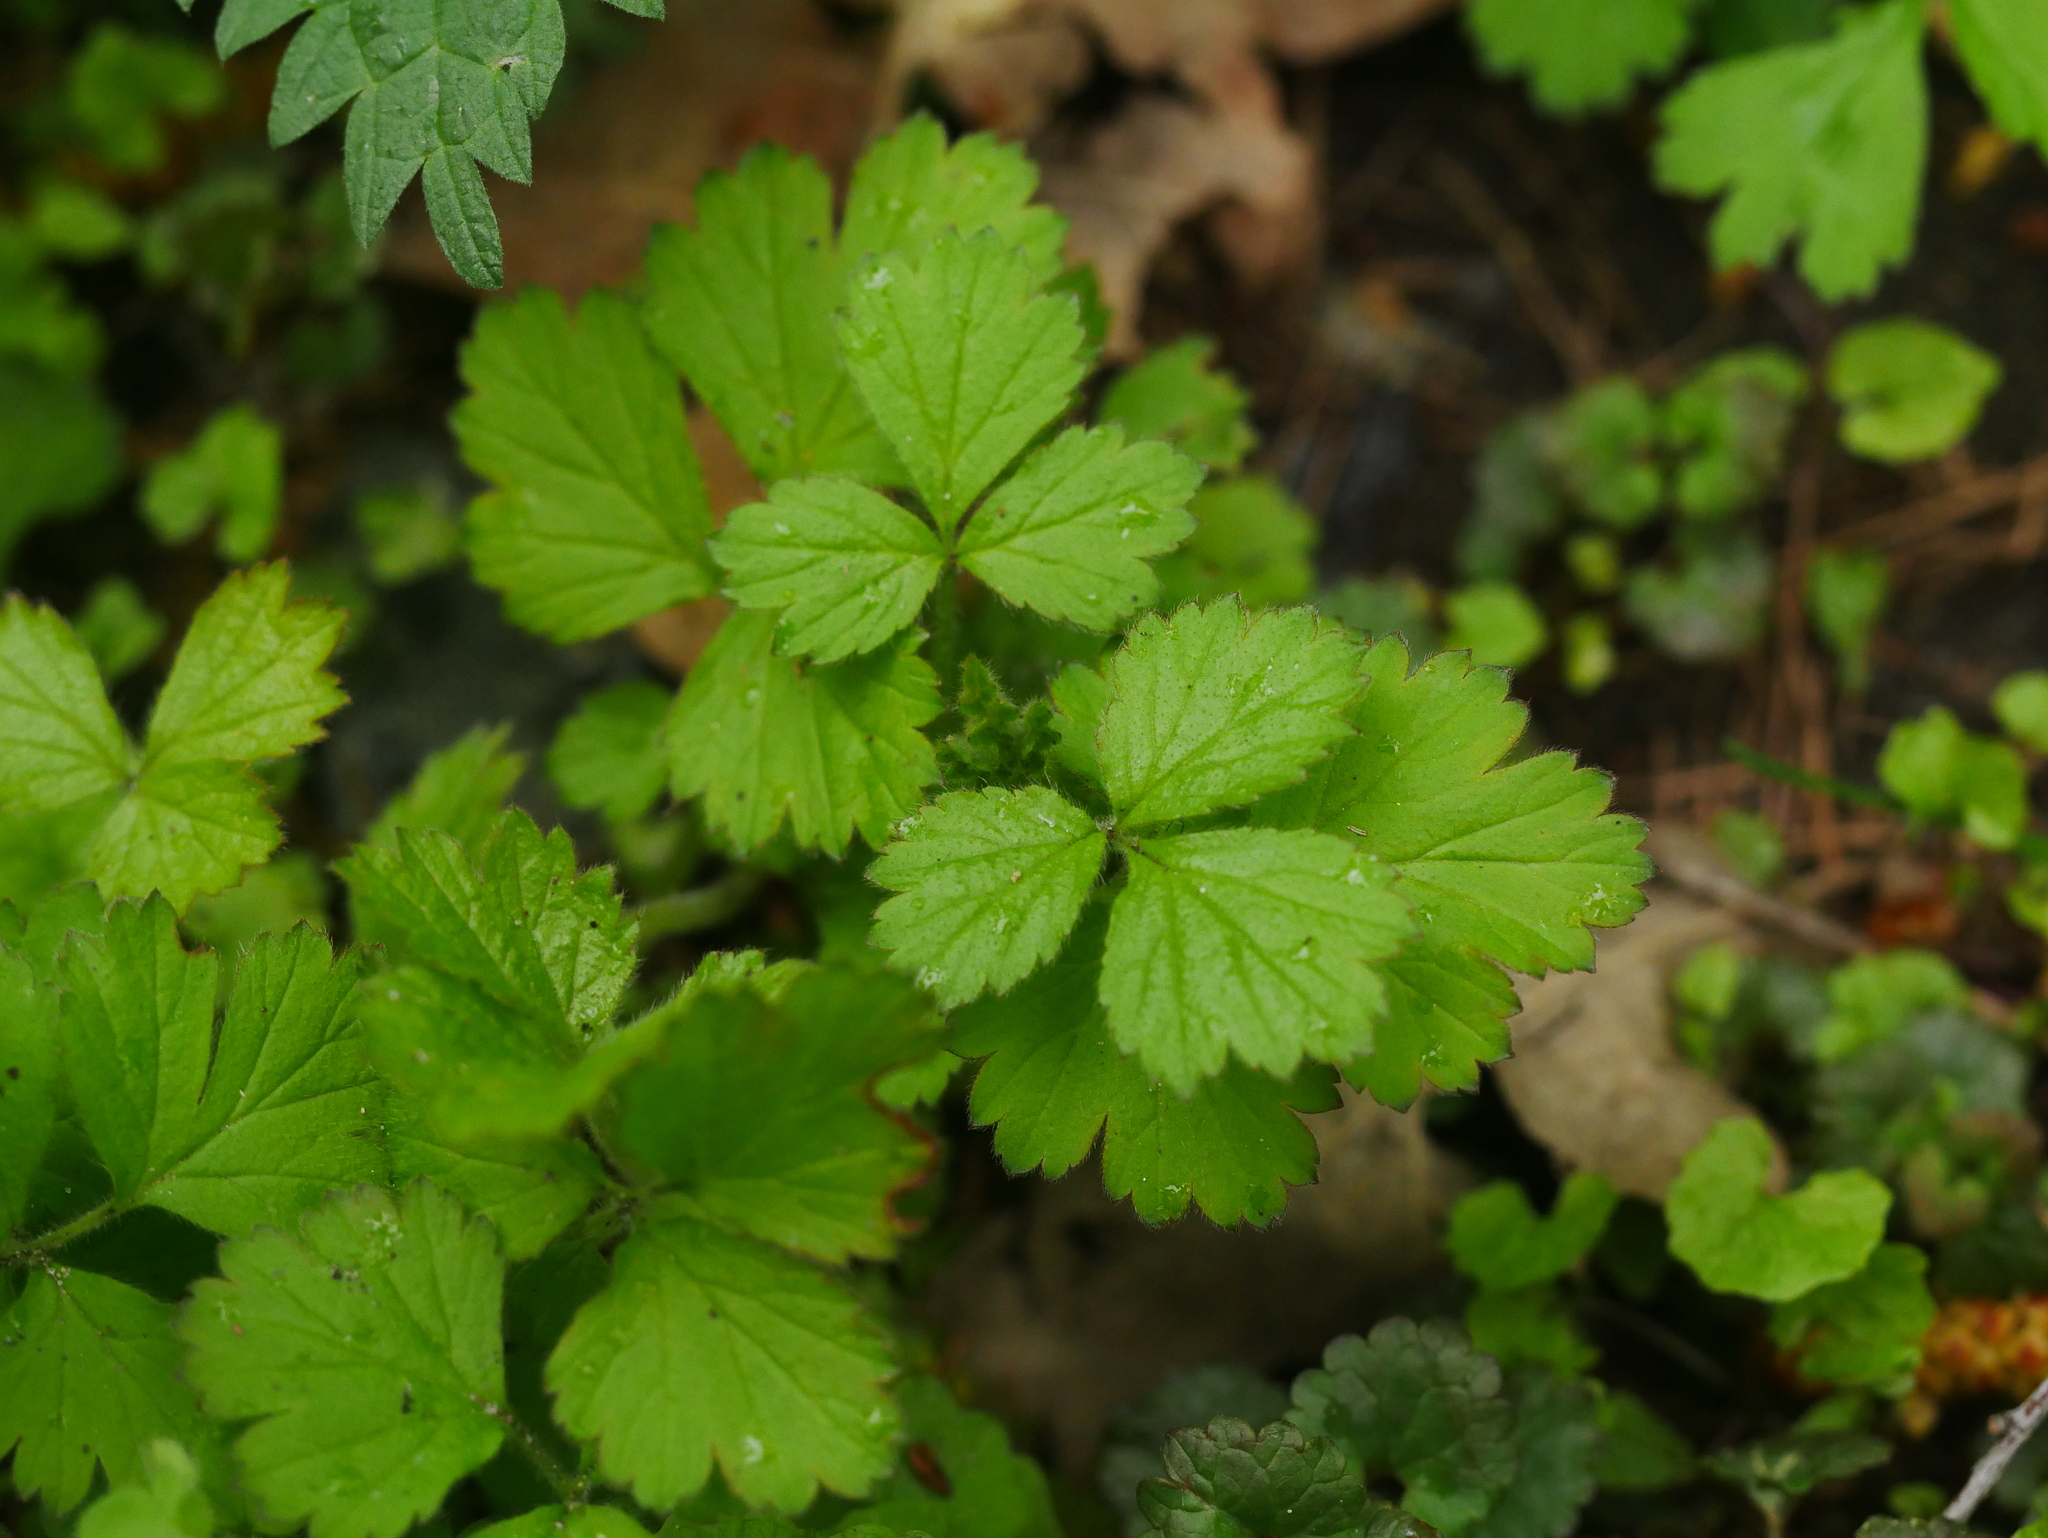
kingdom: Plantae
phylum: Tracheophyta
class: Magnoliopsida
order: Rosales
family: Rosaceae
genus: Geum
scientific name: Geum urbanum
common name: Wood avens
